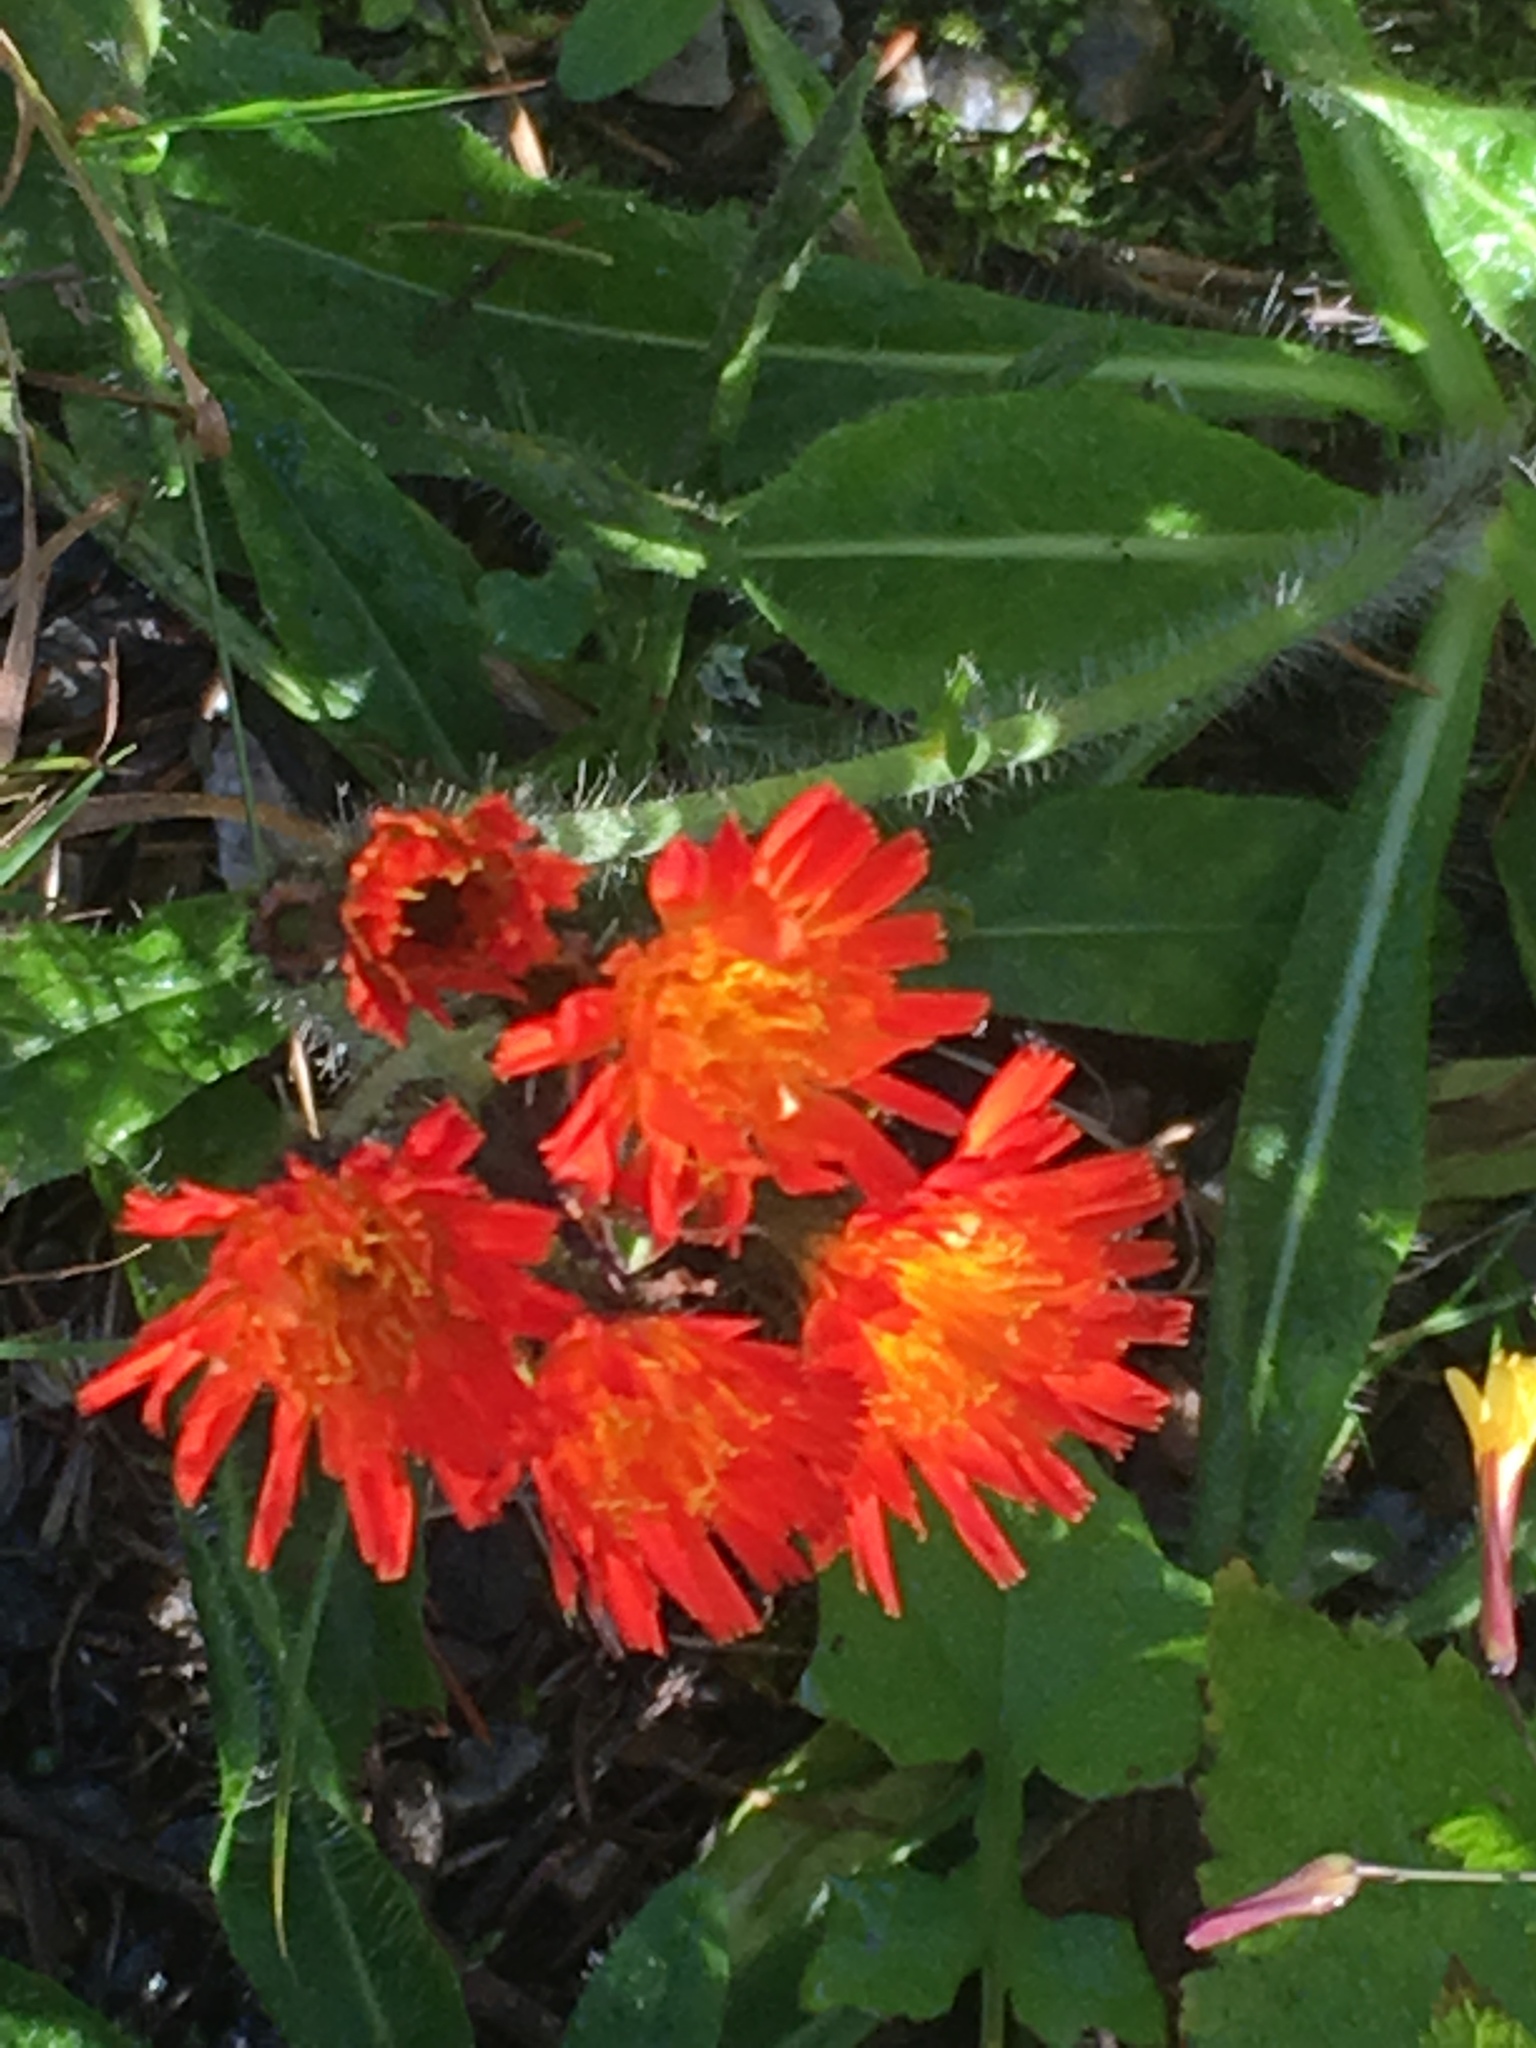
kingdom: Plantae
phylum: Tracheophyta
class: Magnoliopsida
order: Asterales
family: Asteraceae
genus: Pilosella
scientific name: Pilosella aurantiaca
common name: Fox-and-cubs
